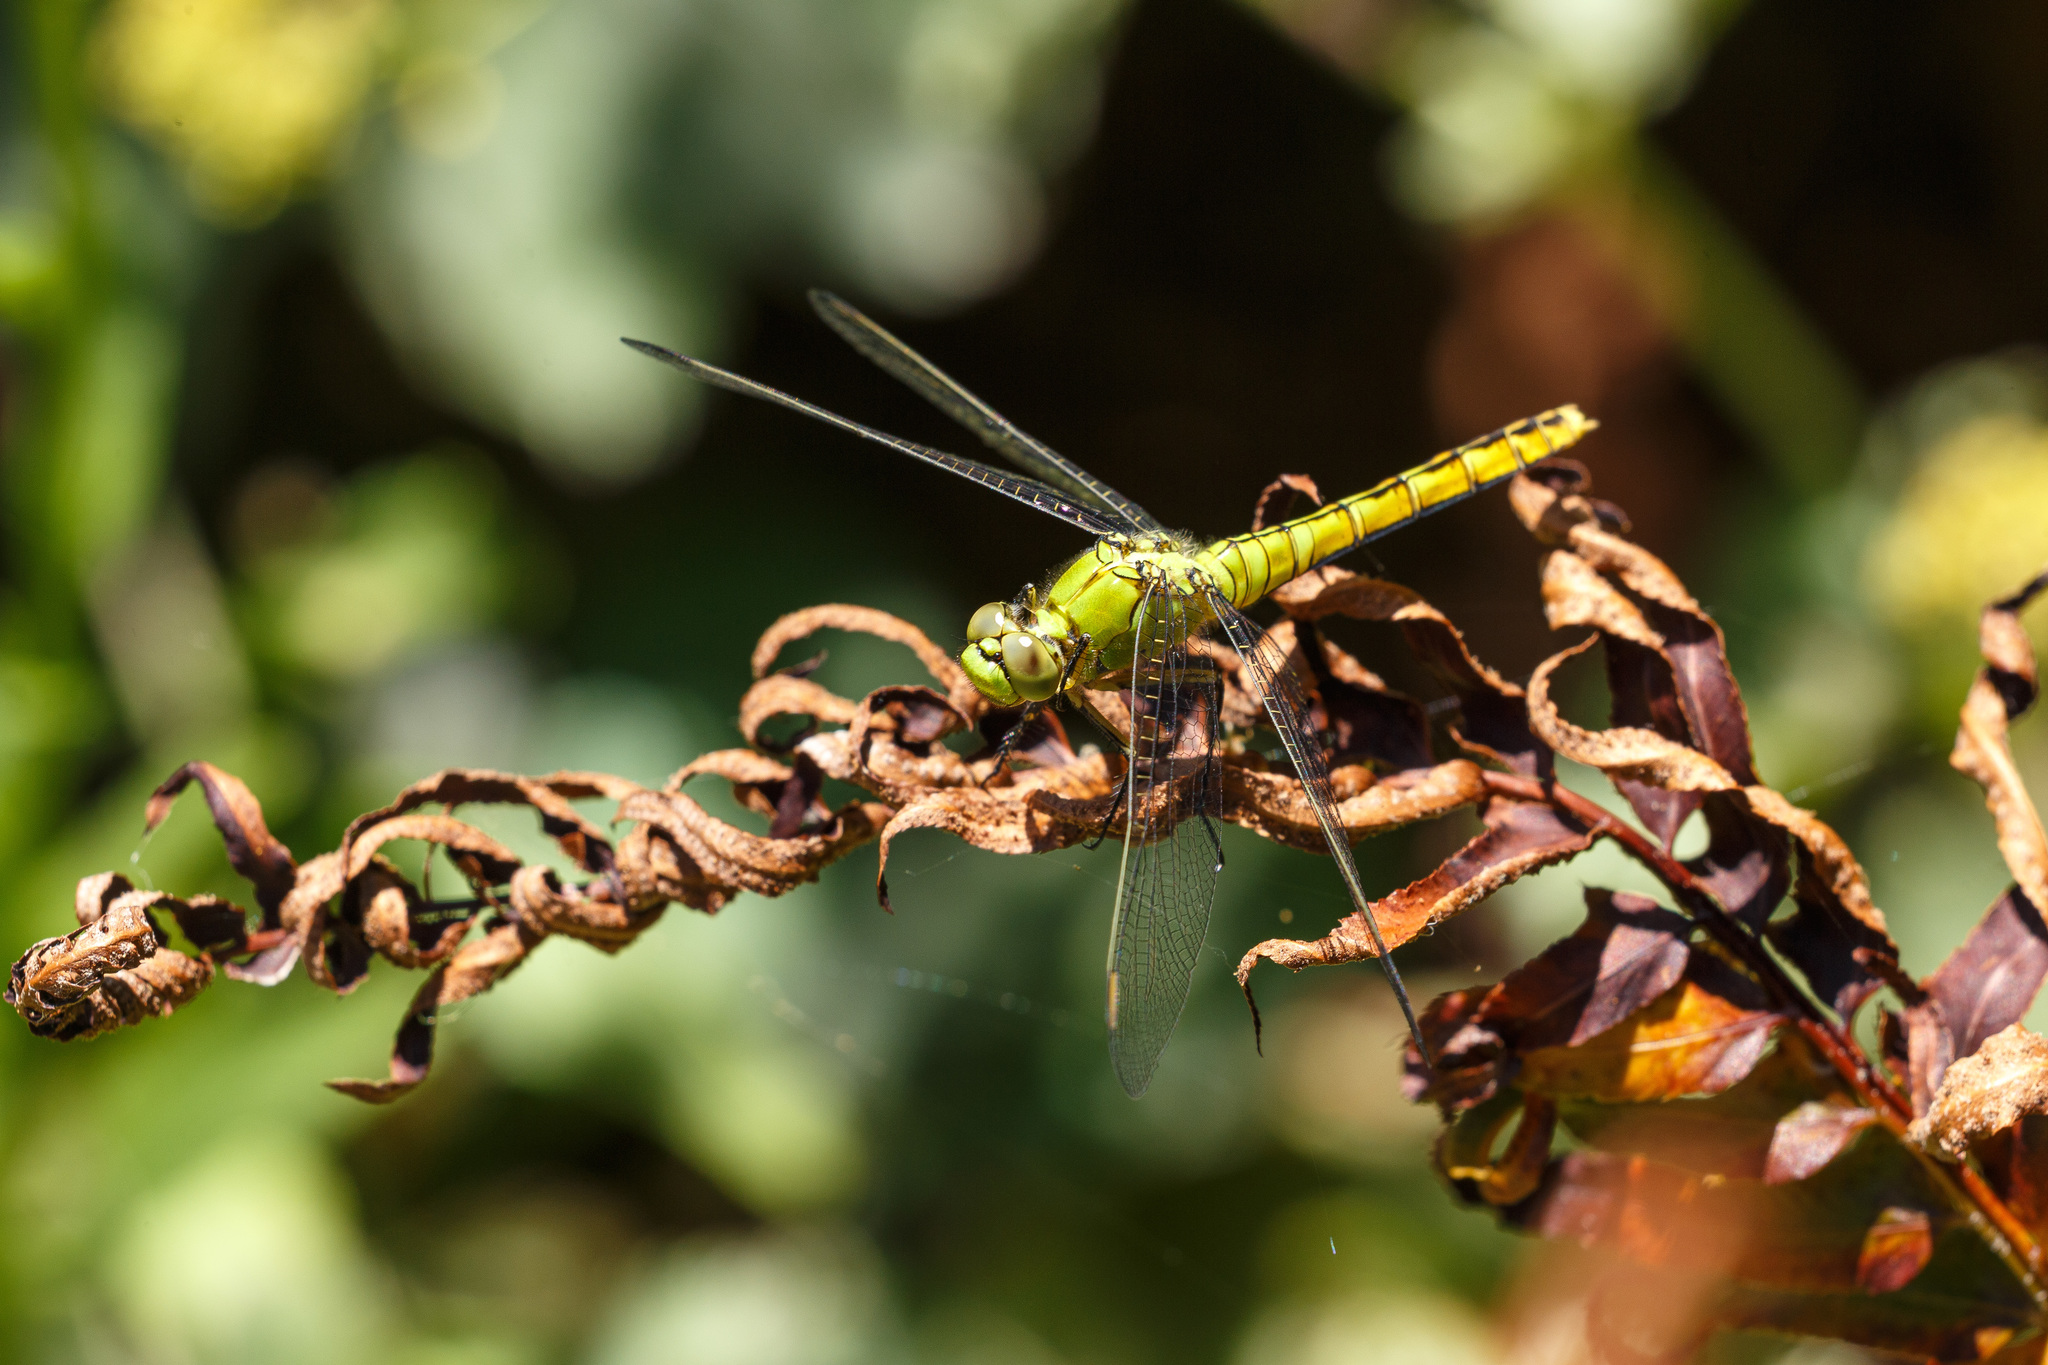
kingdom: Animalia
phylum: Arthropoda
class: Insecta
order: Odonata
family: Libellulidae
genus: Erythemis
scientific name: Erythemis collocata
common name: Western pondhawk
